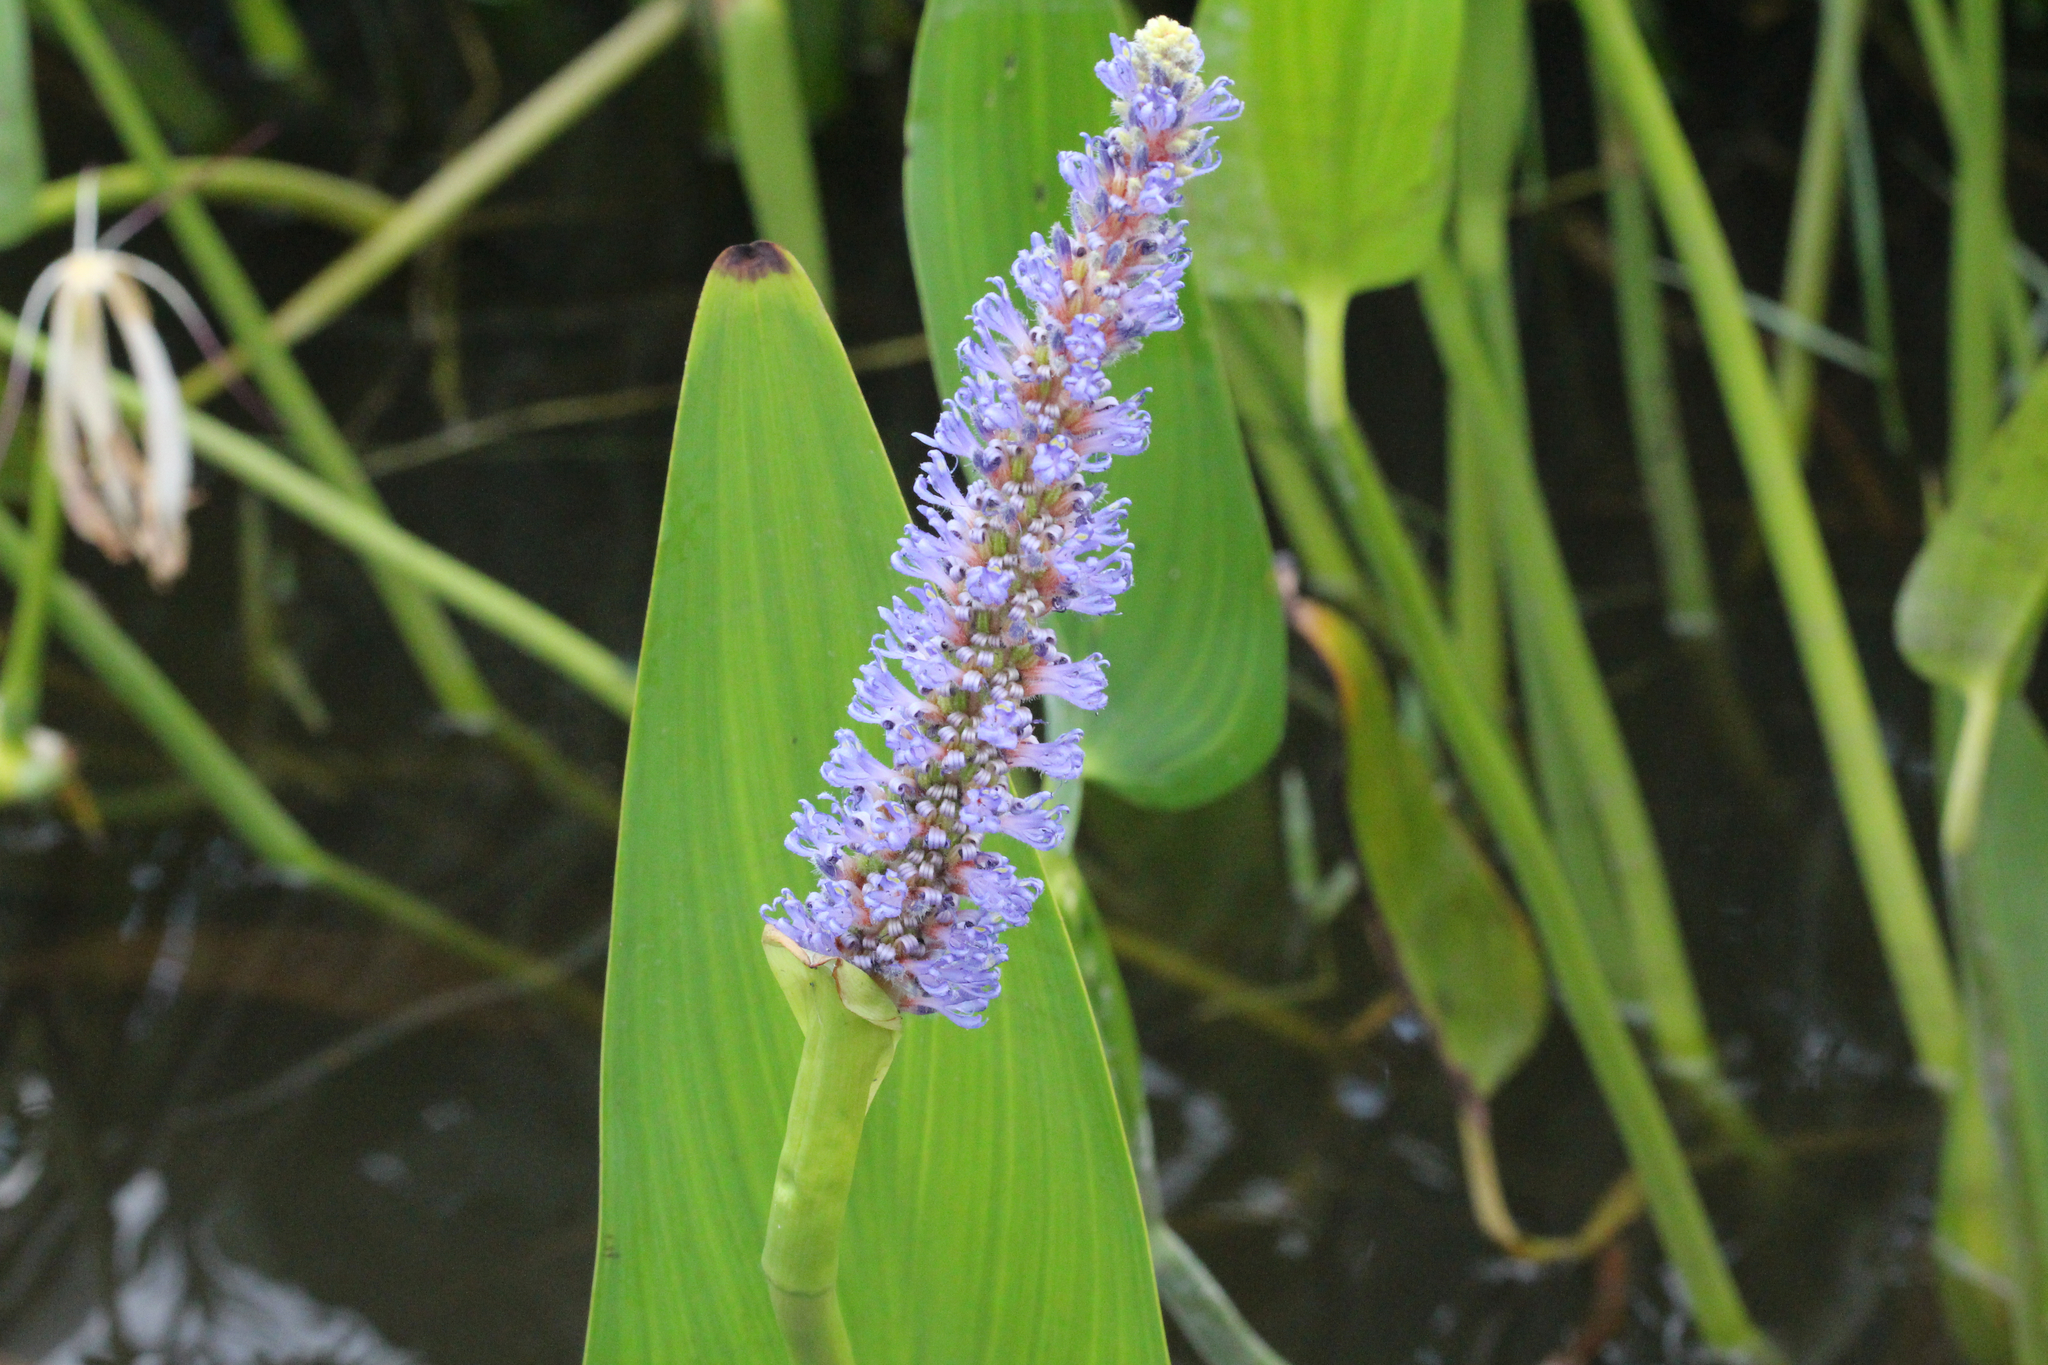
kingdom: Plantae
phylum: Tracheophyta
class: Liliopsida
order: Commelinales
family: Pontederiaceae
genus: Pontederia
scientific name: Pontederia cordata
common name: Pickerelweed
